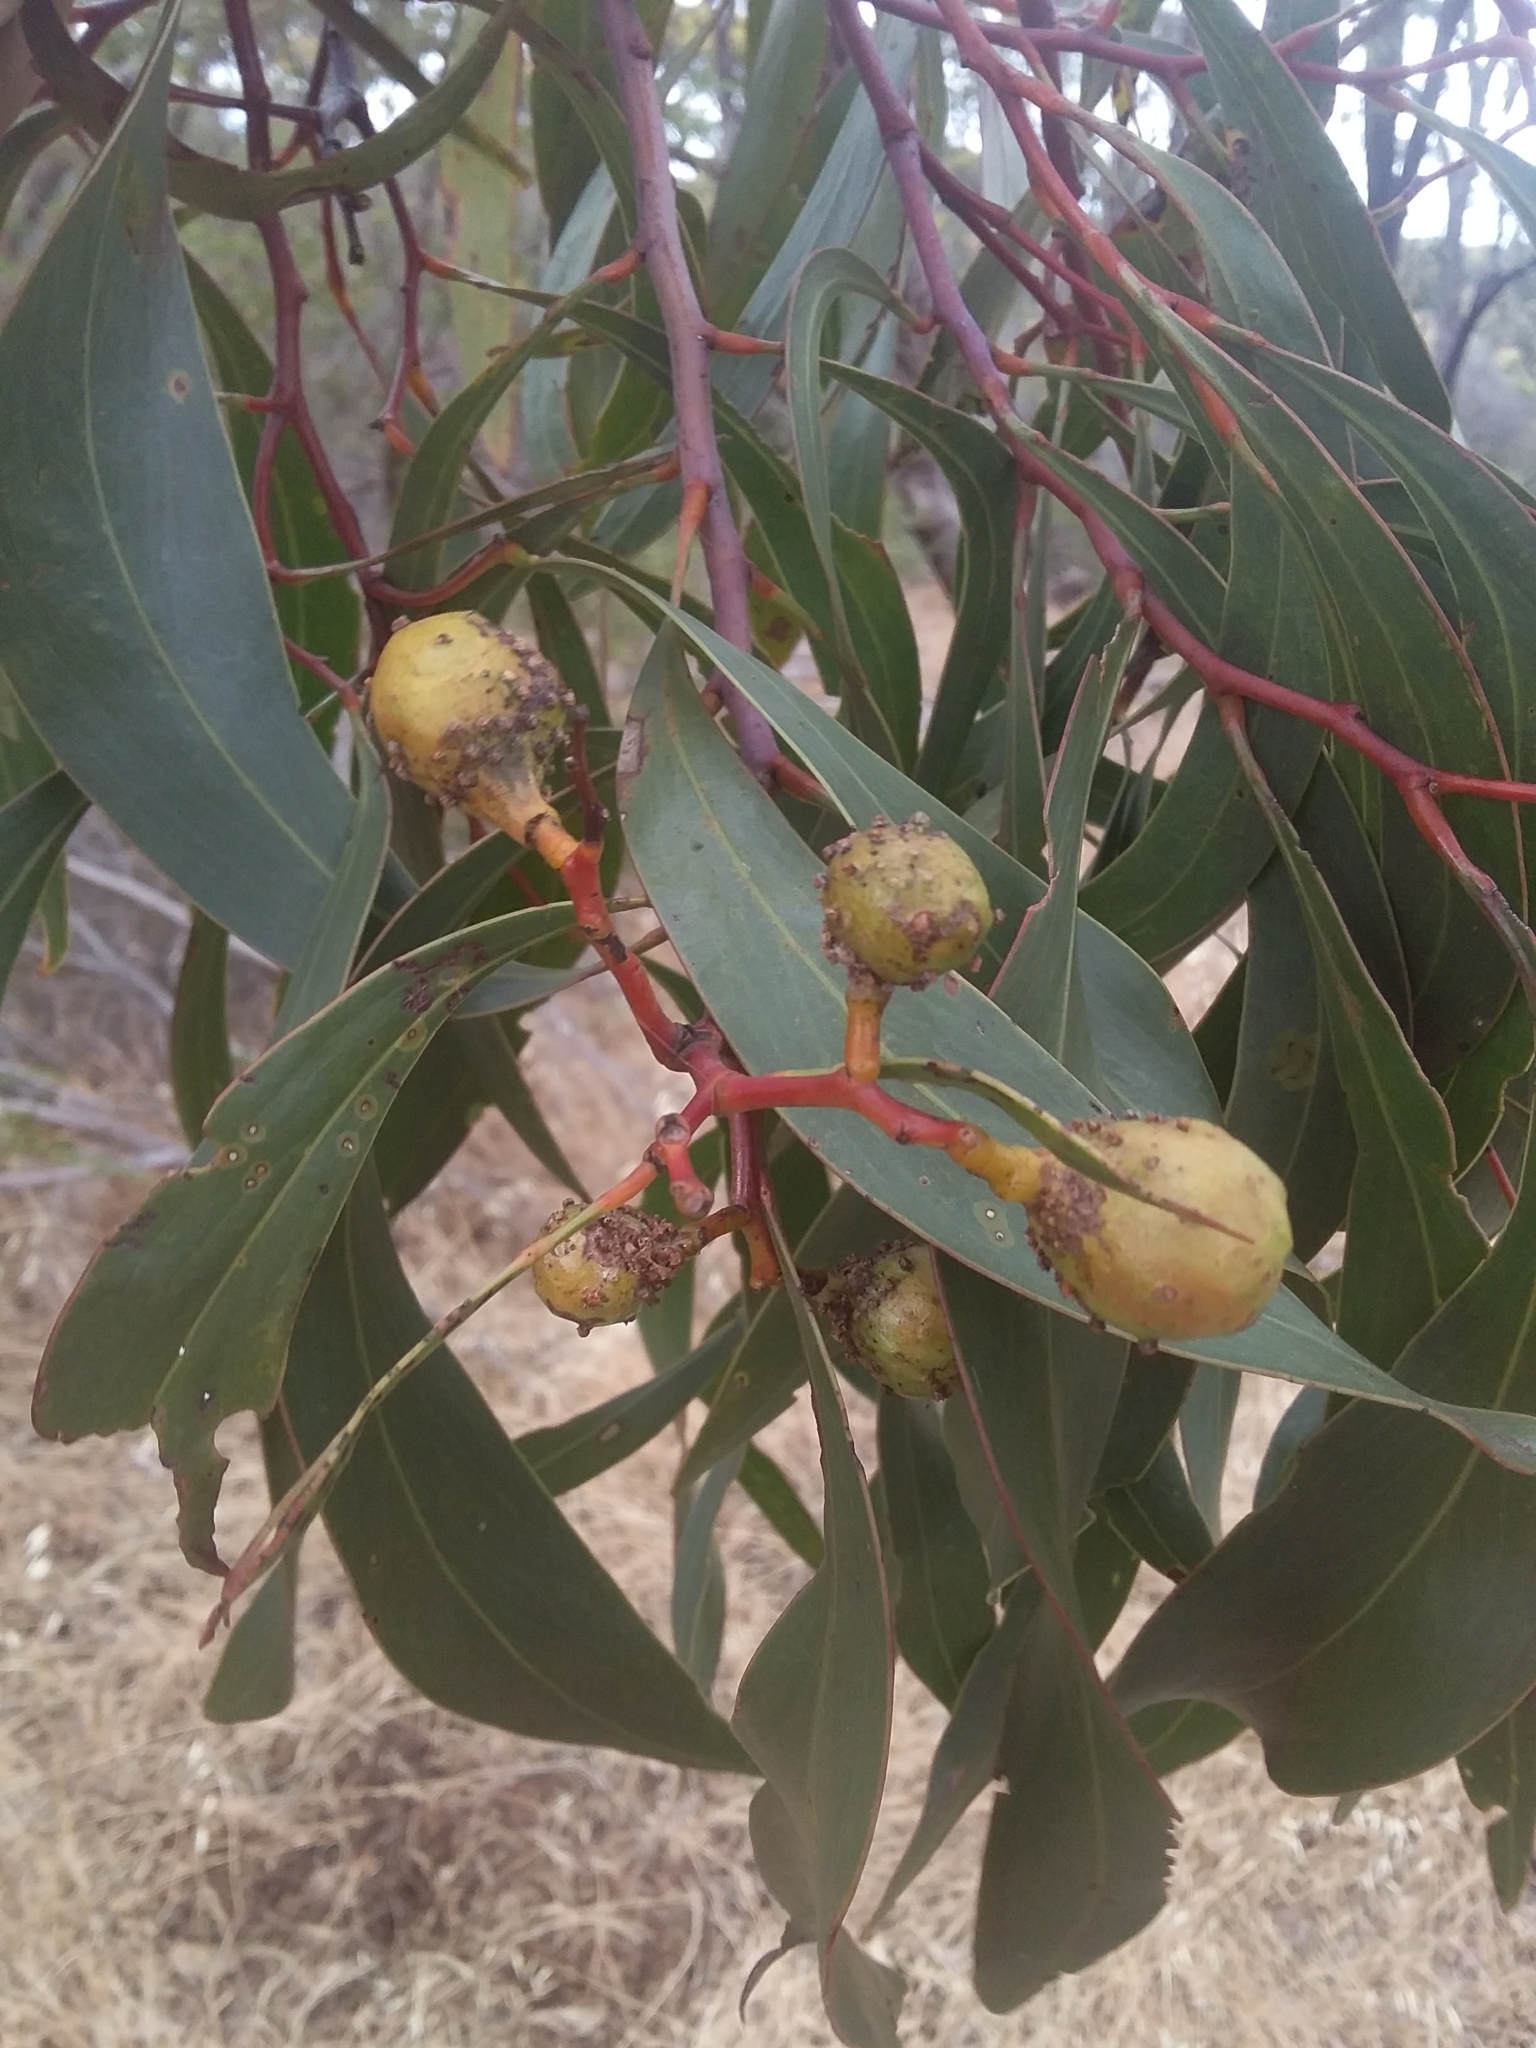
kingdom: Animalia
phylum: Arthropoda
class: Insecta
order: Hymenoptera
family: Pteromalidae
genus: Trichilogaster
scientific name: Trichilogaster signiventris
